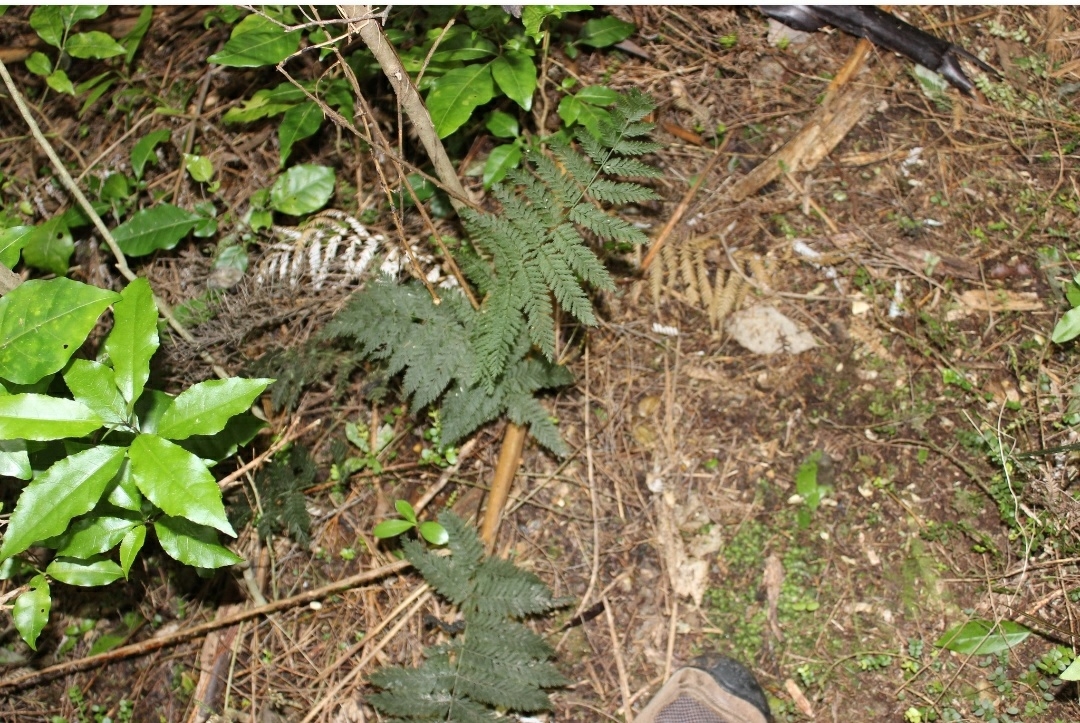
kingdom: Plantae
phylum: Tracheophyta
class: Polypodiopsida
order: Osmundales
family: Osmundaceae
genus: Leptopteris
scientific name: Leptopteris hymenophylloides
